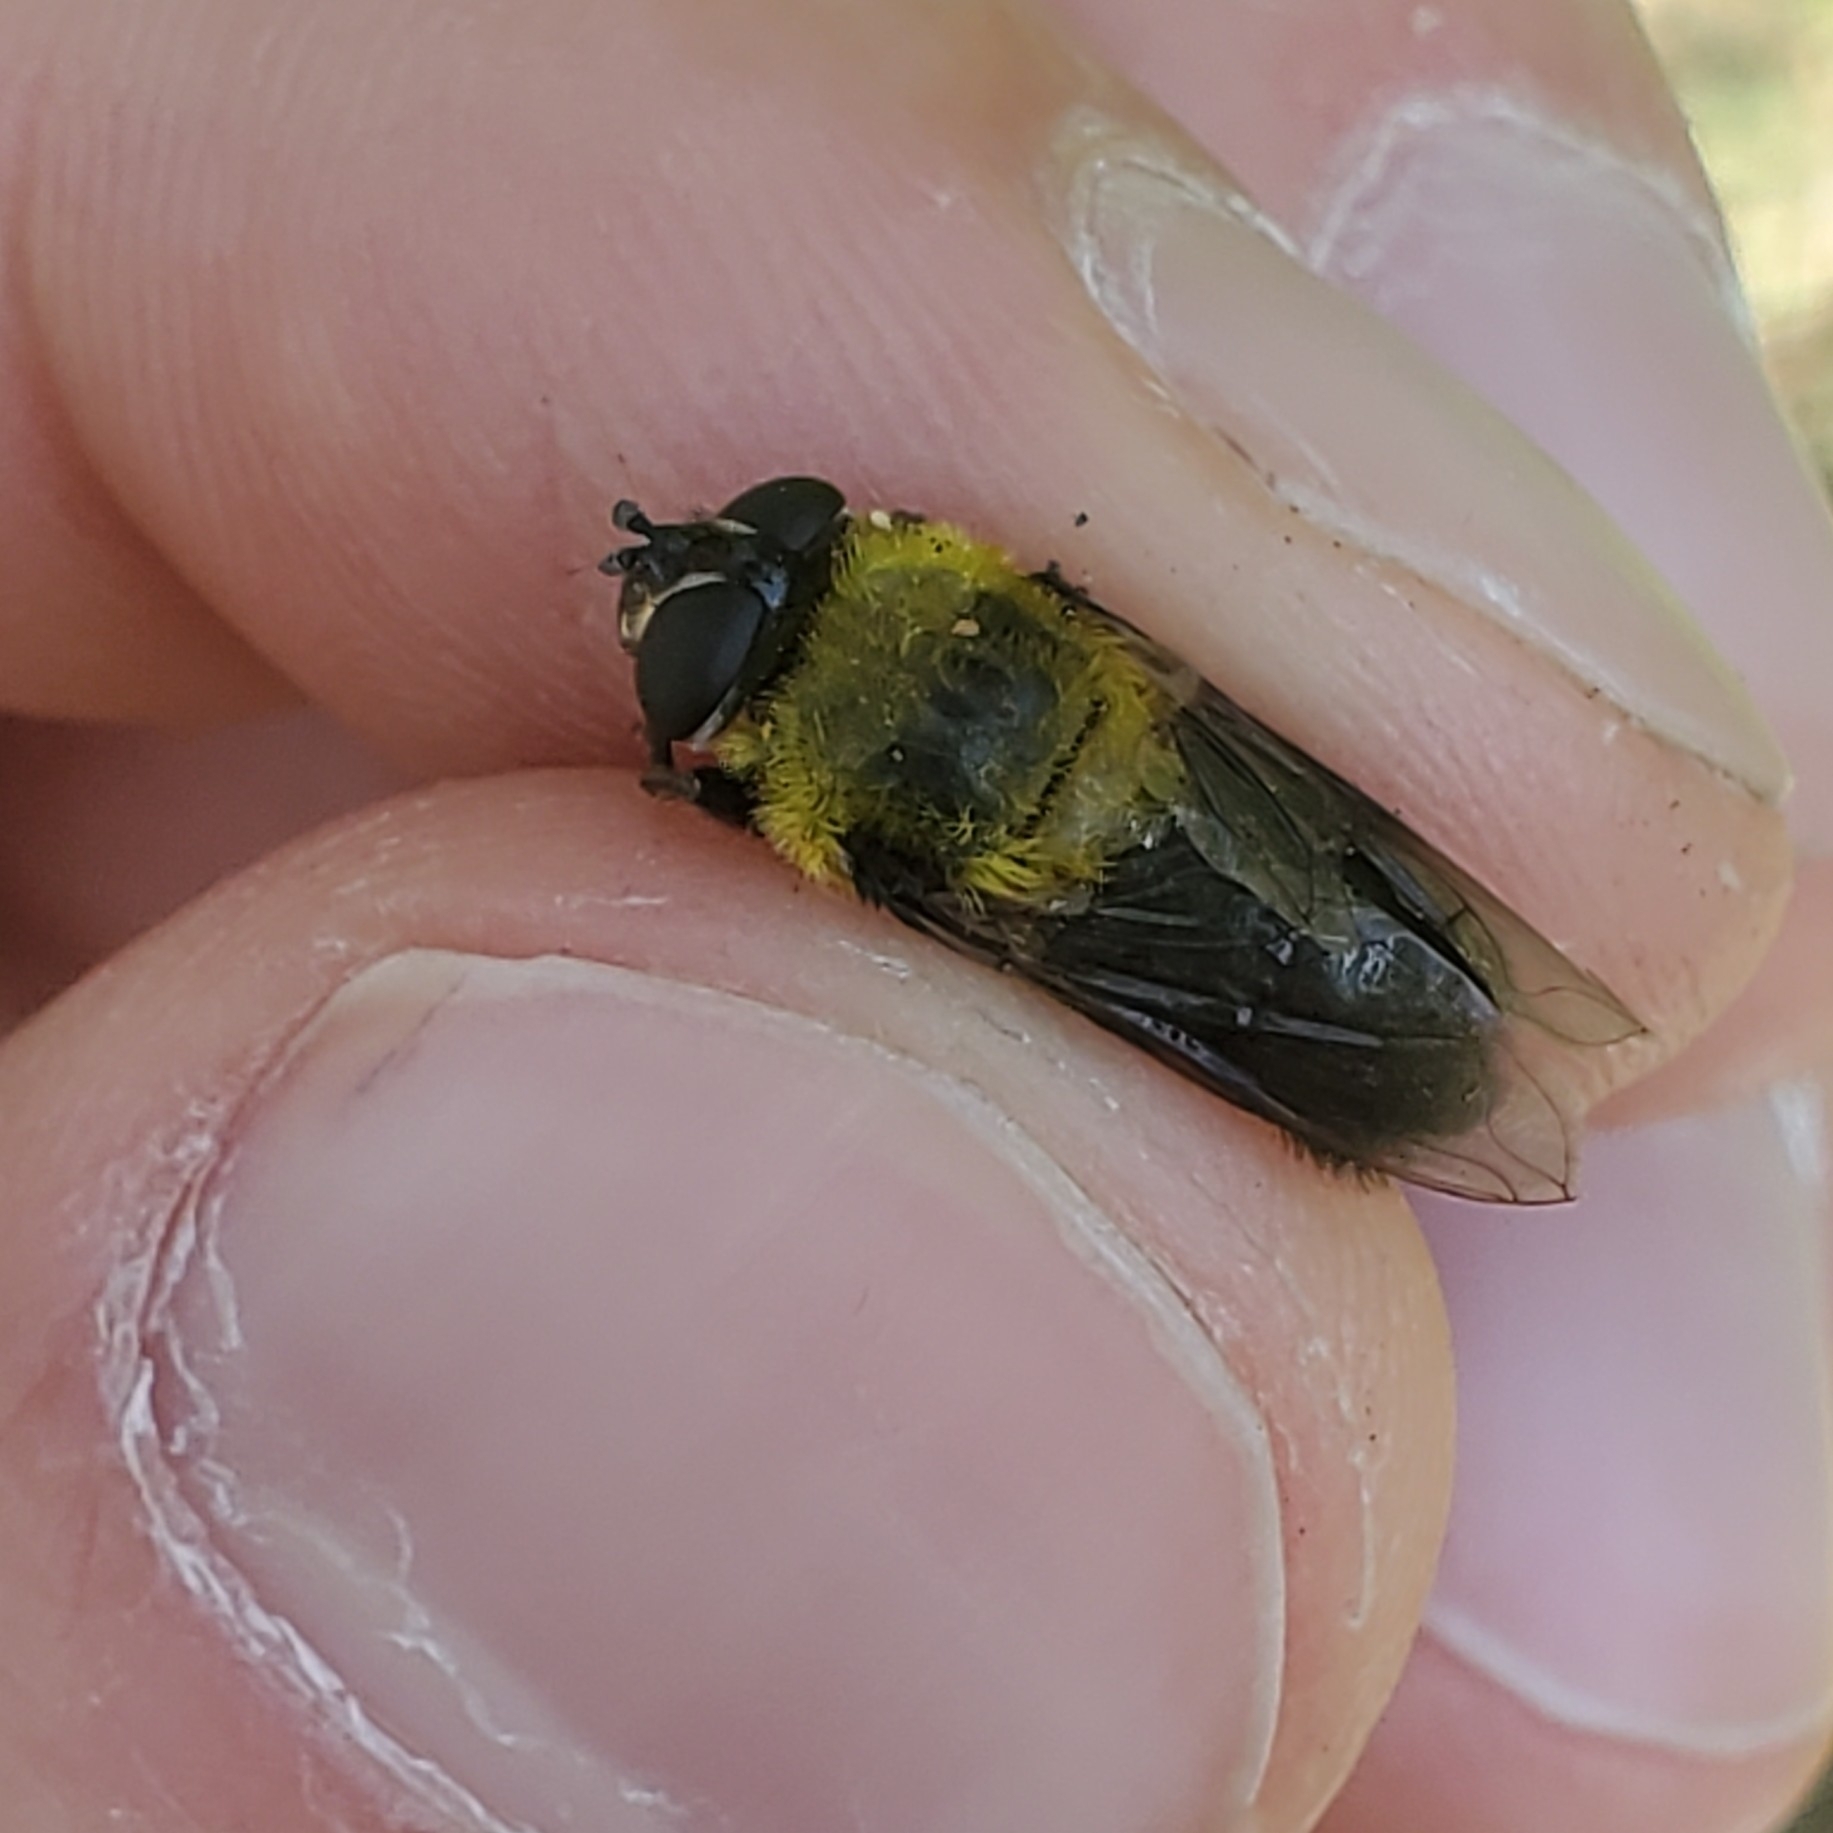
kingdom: Animalia
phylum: Arthropoda
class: Insecta
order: Diptera
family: Syrphidae
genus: Imatisma
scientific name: Imatisma bautias
